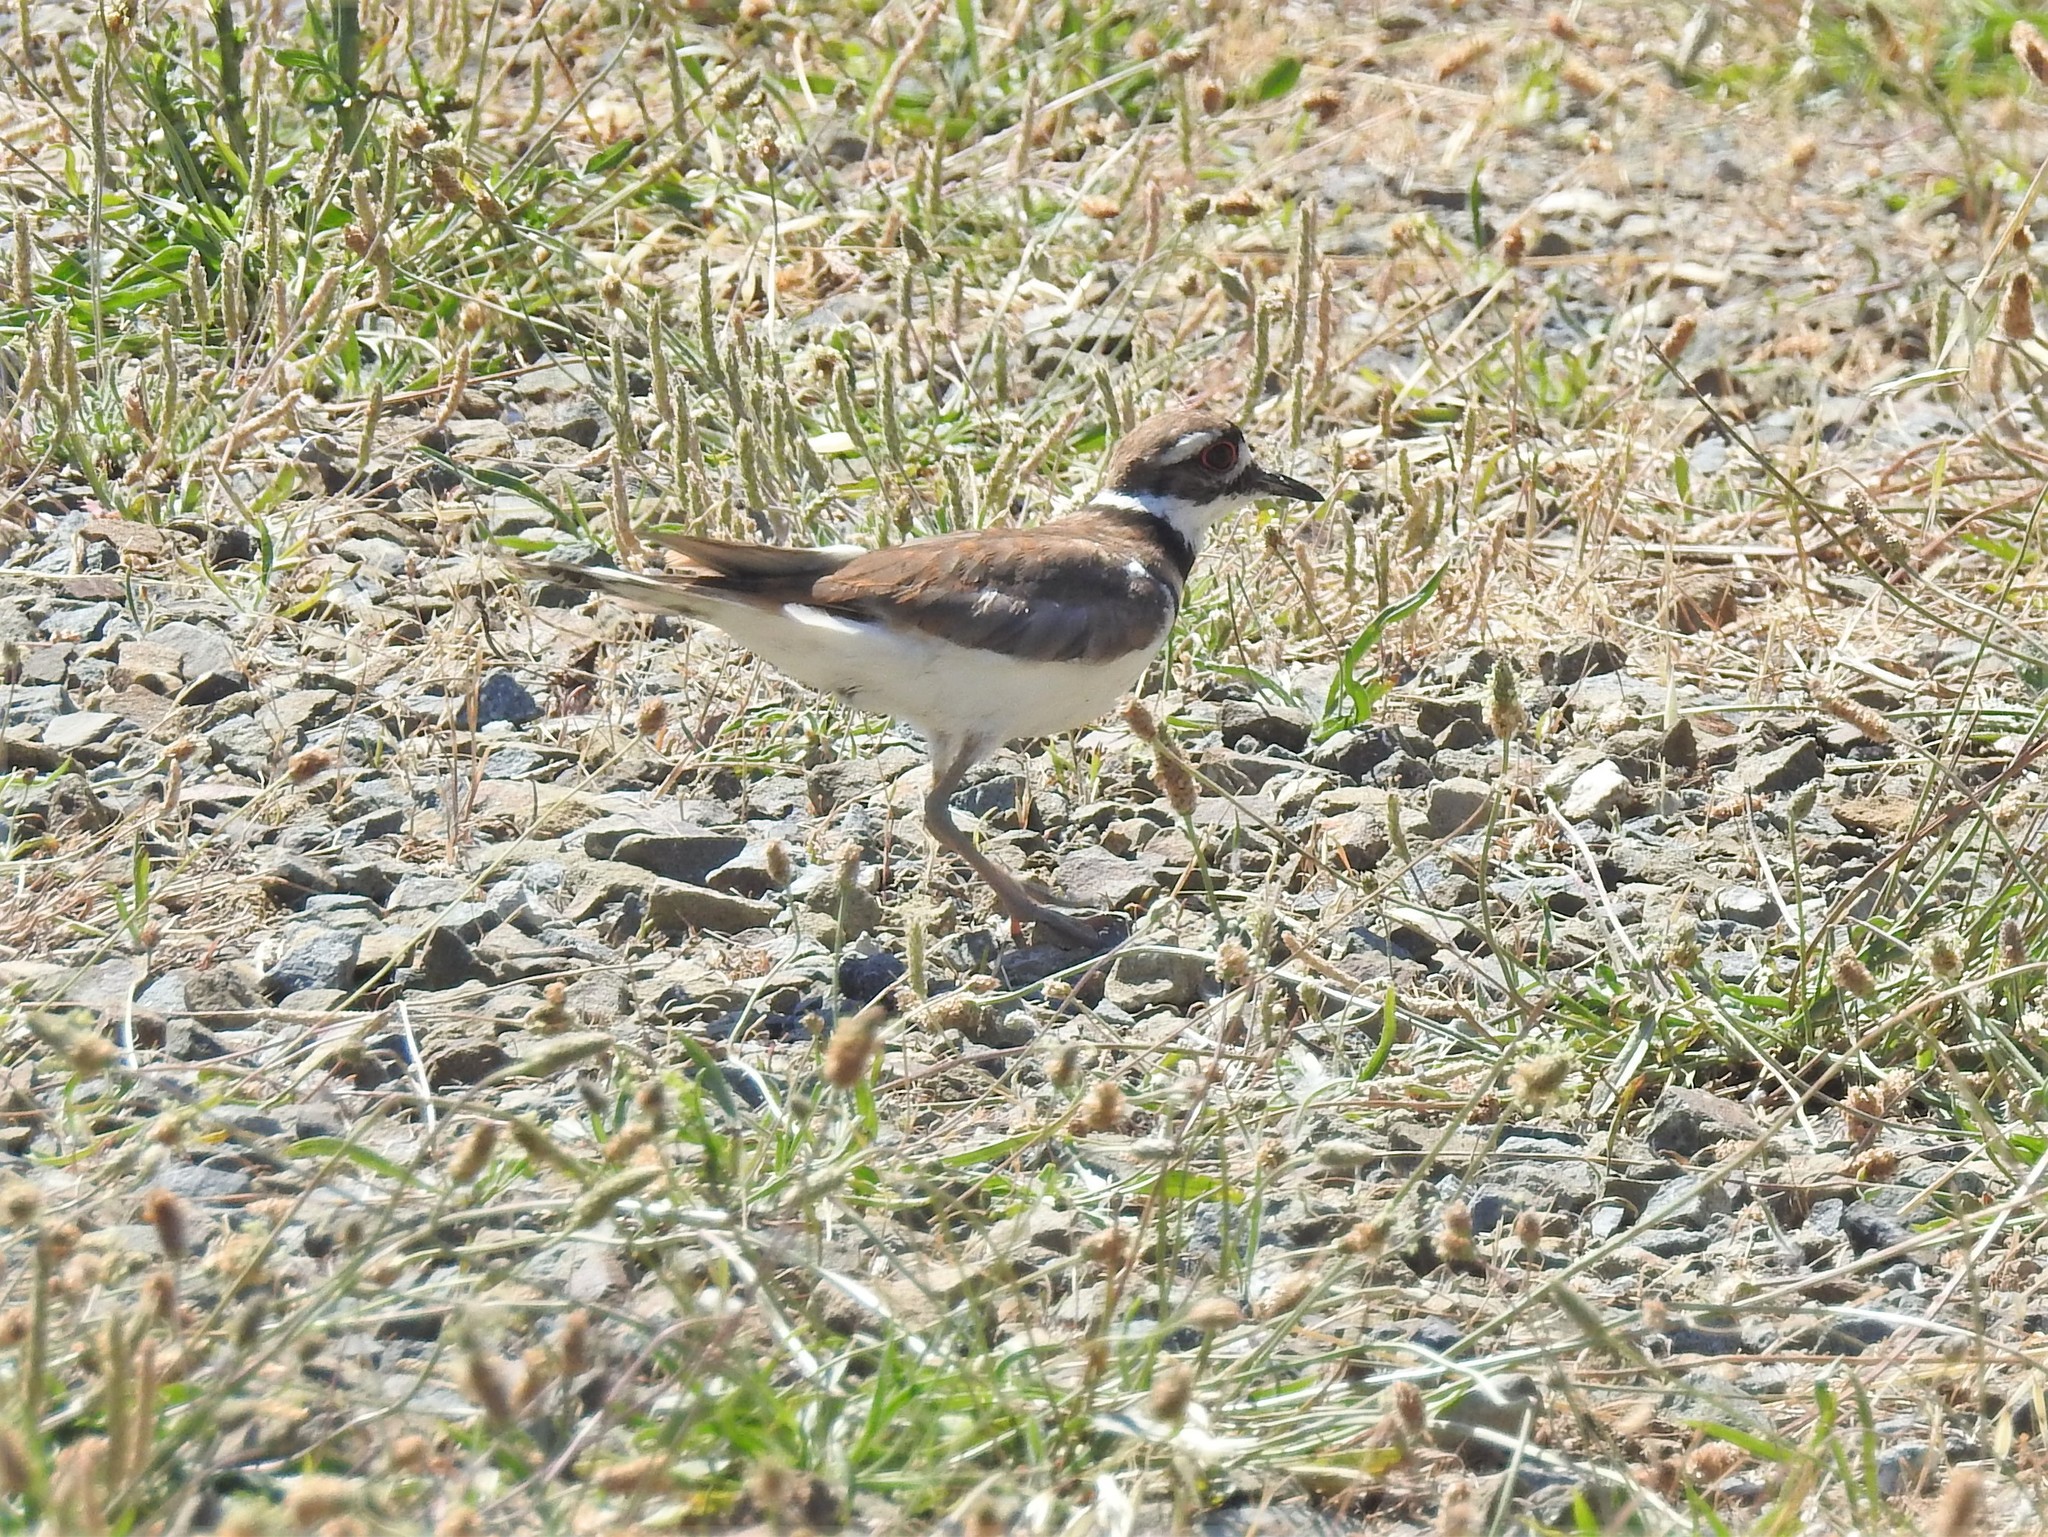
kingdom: Animalia
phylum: Chordata
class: Aves
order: Charadriiformes
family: Charadriidae
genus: Charadrius
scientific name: Charadrius vociferus
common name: Killdeer
